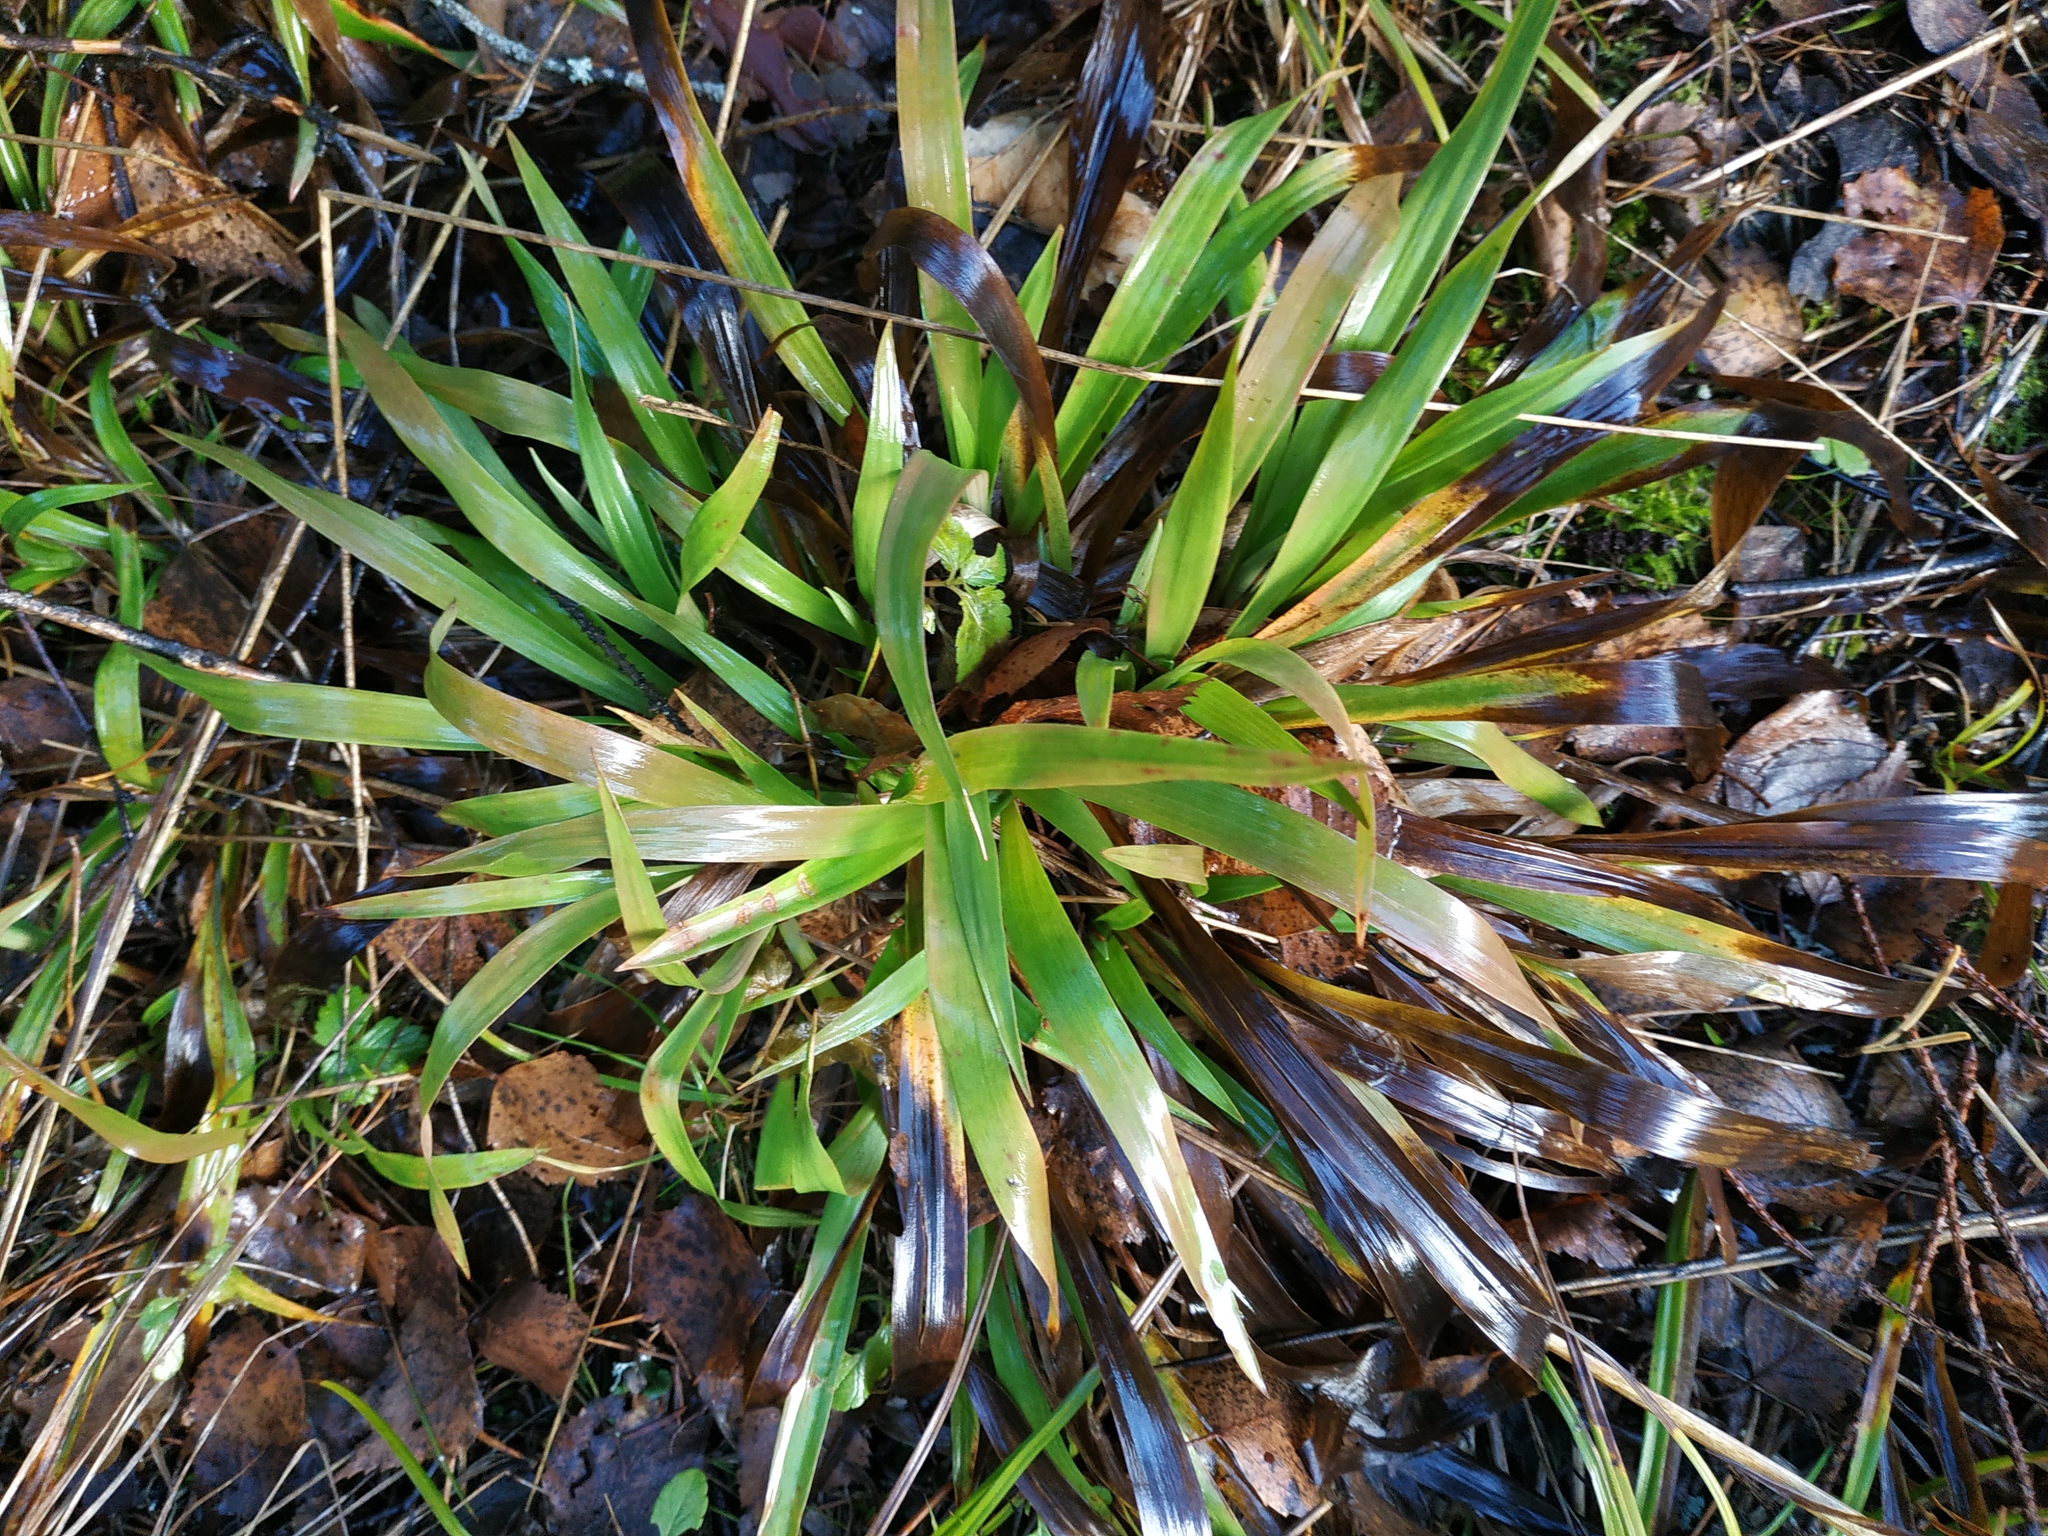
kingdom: Plantae
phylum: Tracheophyta
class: Liliopsida
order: Poales
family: Juncaceae
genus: Luzula
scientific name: Luzula pilosa
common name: Hairy wood-rush
